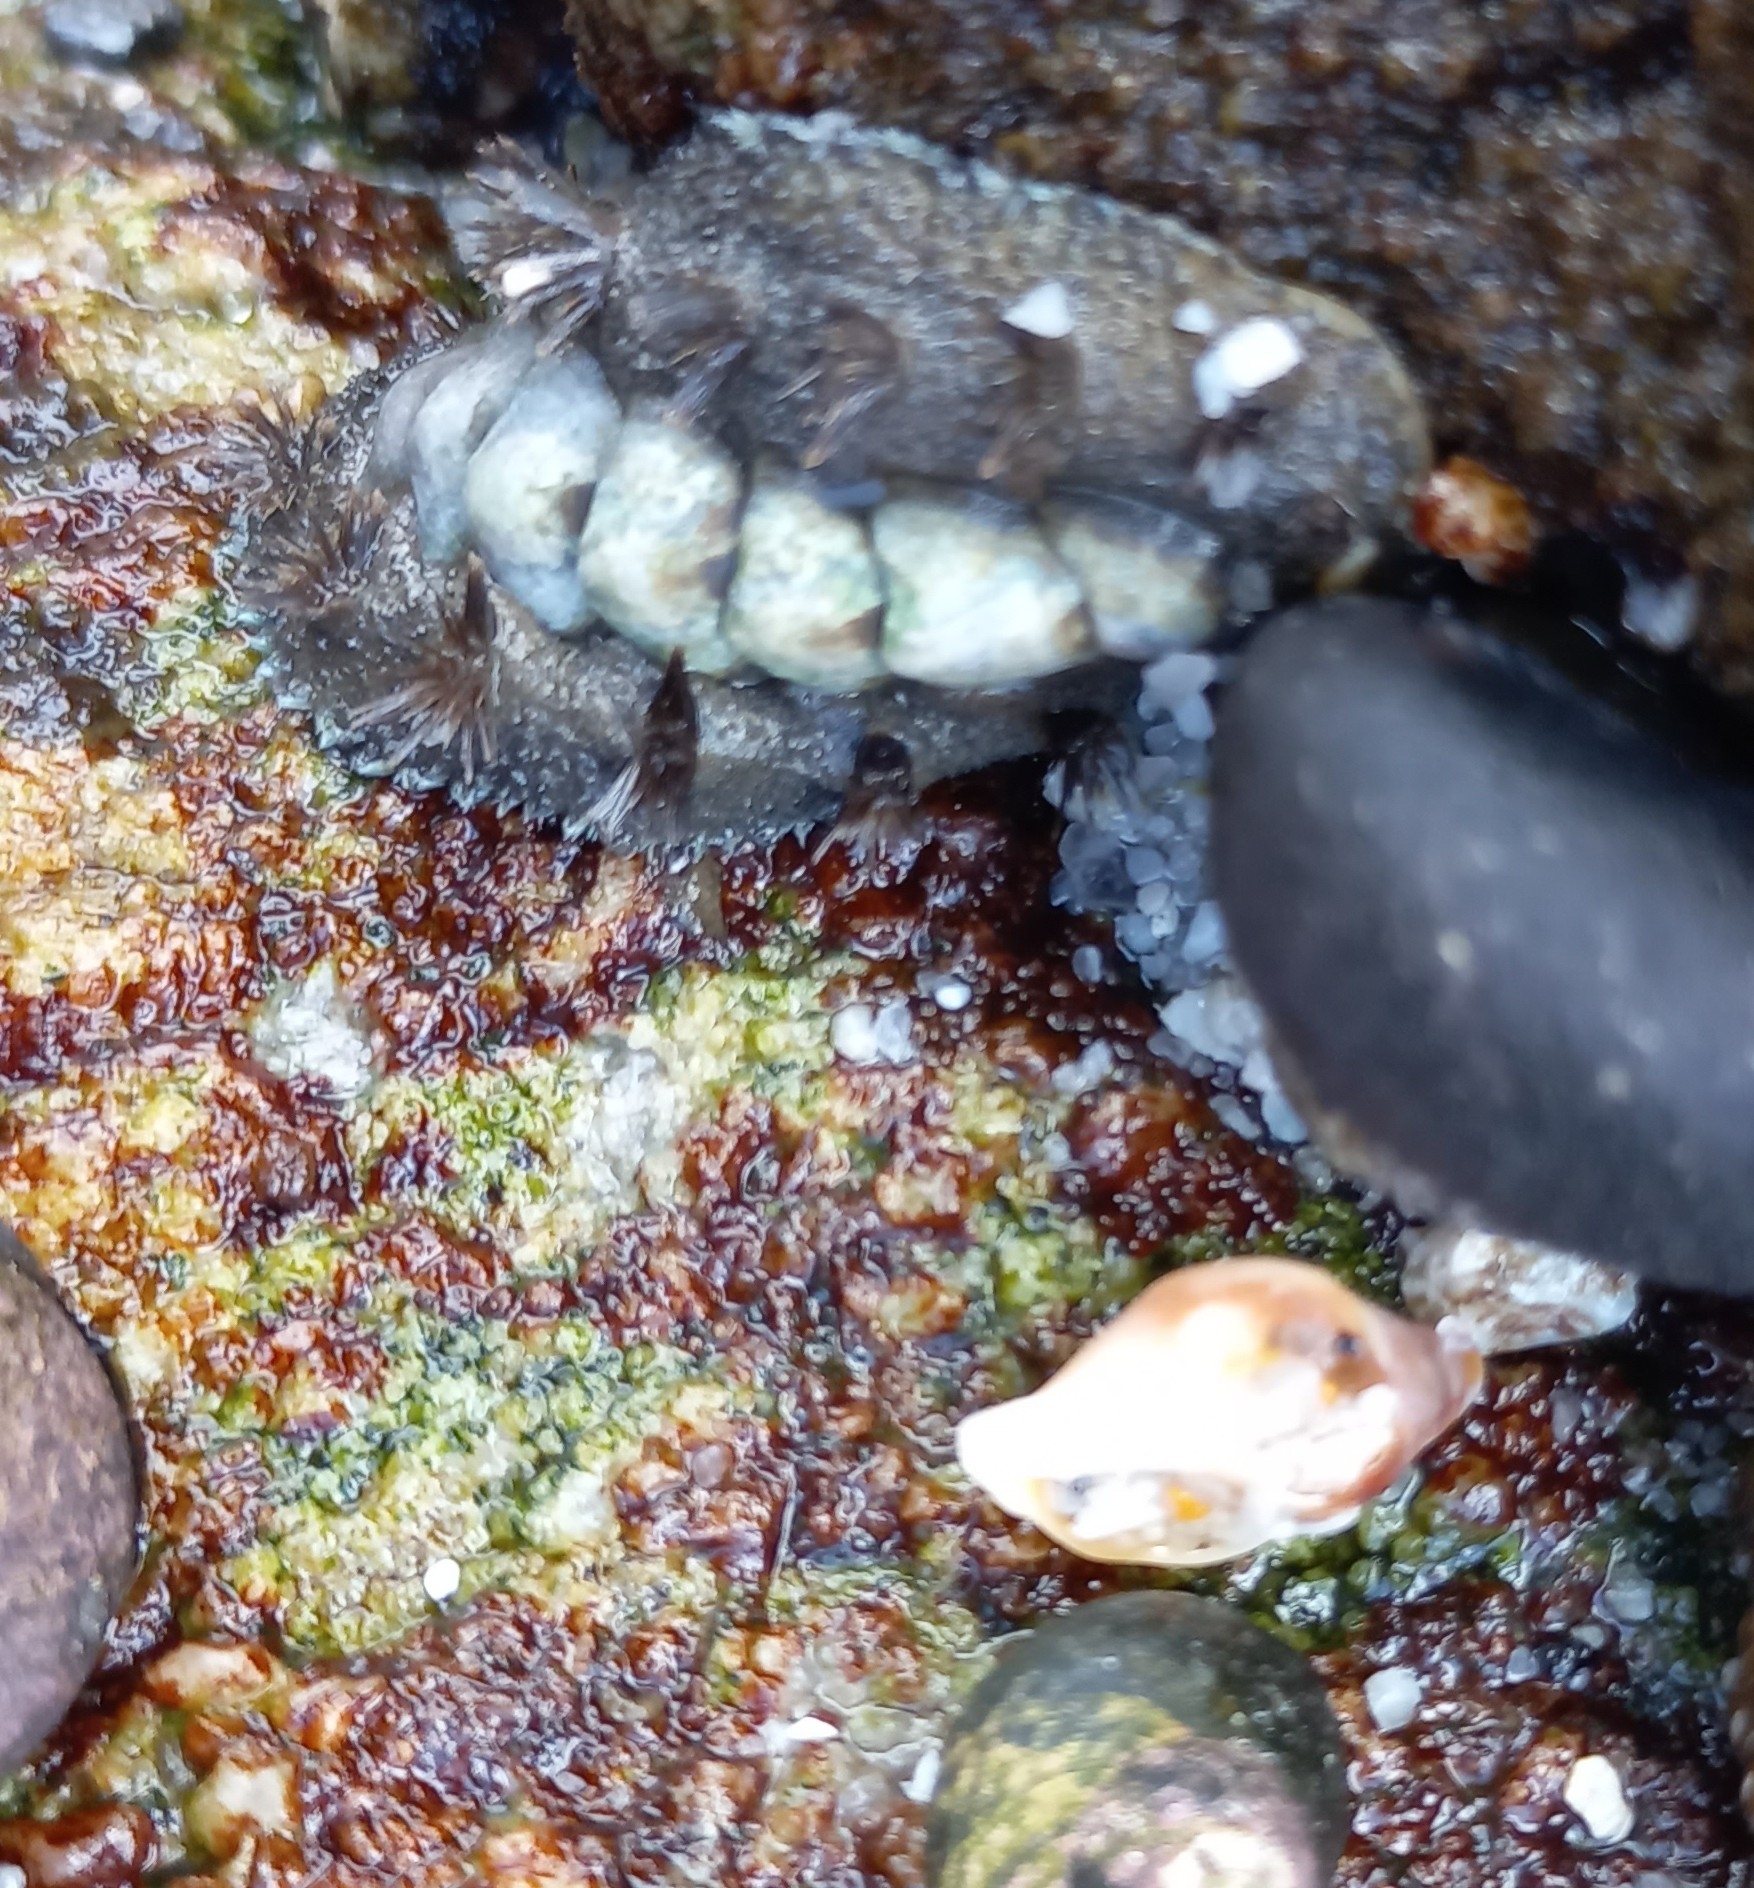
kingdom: Animalia
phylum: Mollusca
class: Polyplacophora
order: Chitonida
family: Acanthochitonidae
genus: Acanthochitona
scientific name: Acanthochitona garnoti
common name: Spiny chiton
